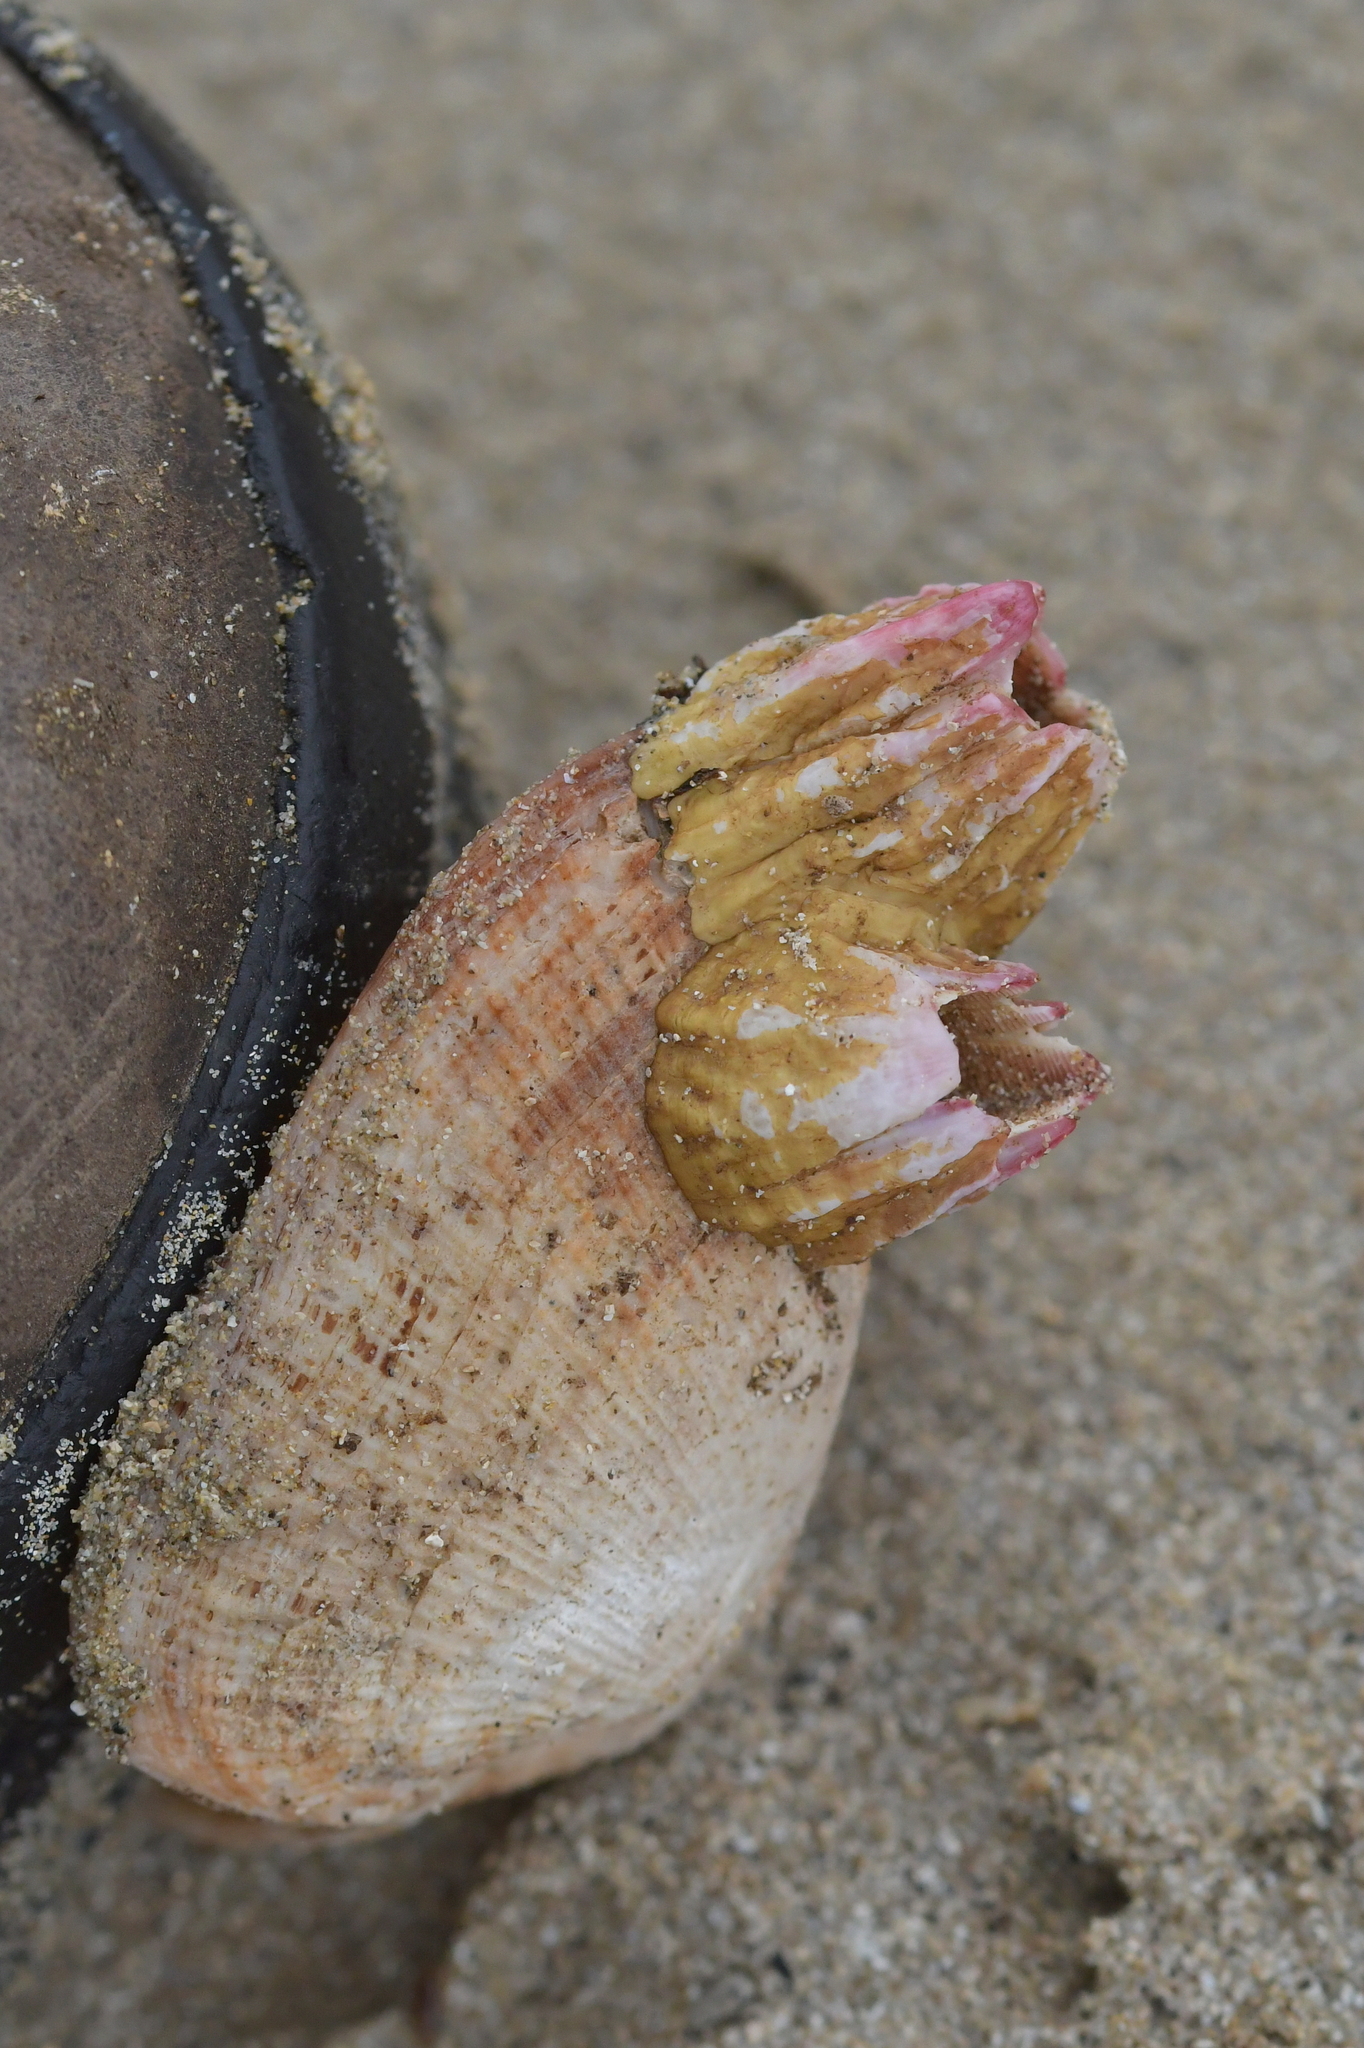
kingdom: Animalia
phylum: Arthropoda
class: Maxillopoda
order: Sessilia
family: Balanidae
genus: Notobalanus
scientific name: Notobalanus vestitus
